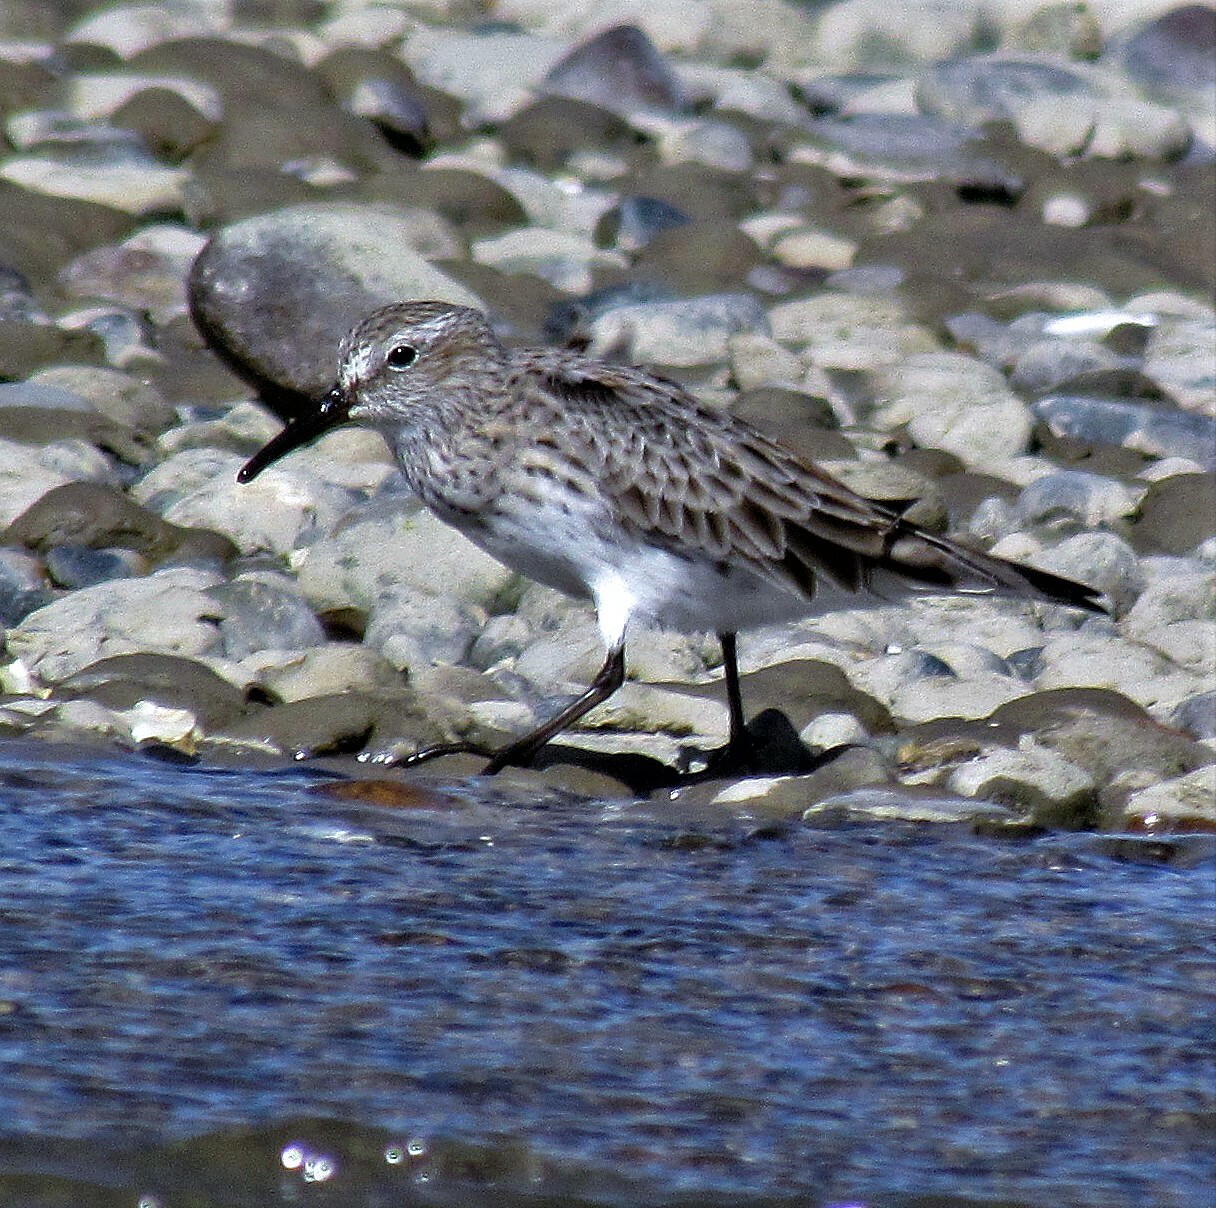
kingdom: Animalia
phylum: Chordata
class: Aves
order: Charadriiformes
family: Scolopacidae
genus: Calidris
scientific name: Calidris fuscicollis
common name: White-rumped sandpiper
